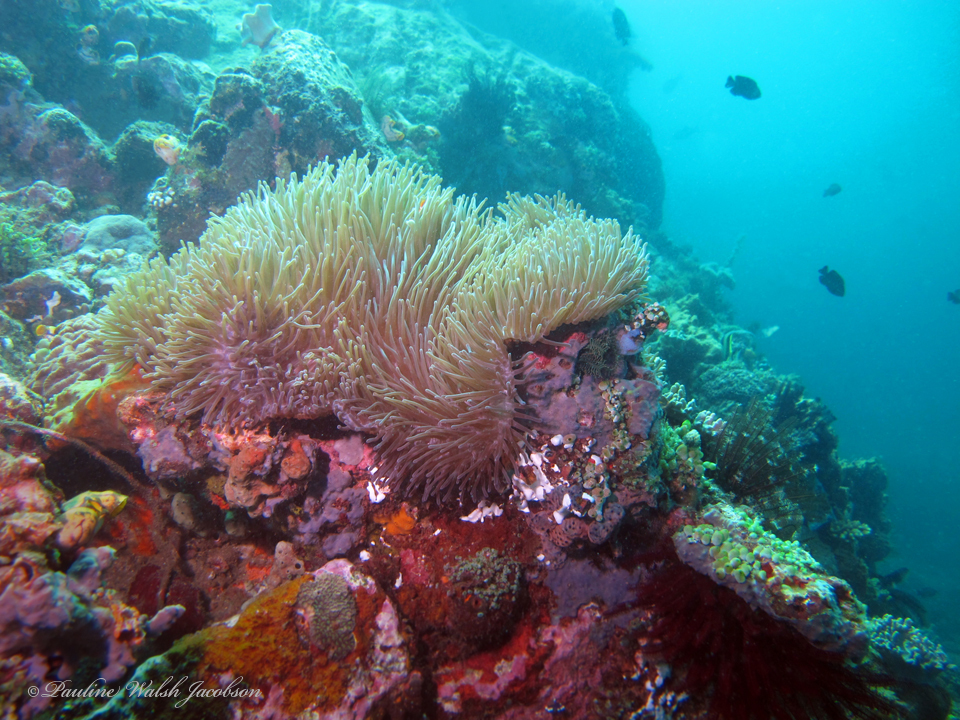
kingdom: Animalia
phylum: Cnidaria
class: Anthozoa
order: Actiniaria
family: Stichodactylidae
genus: Radianthus
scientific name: Radianthus magnifica
